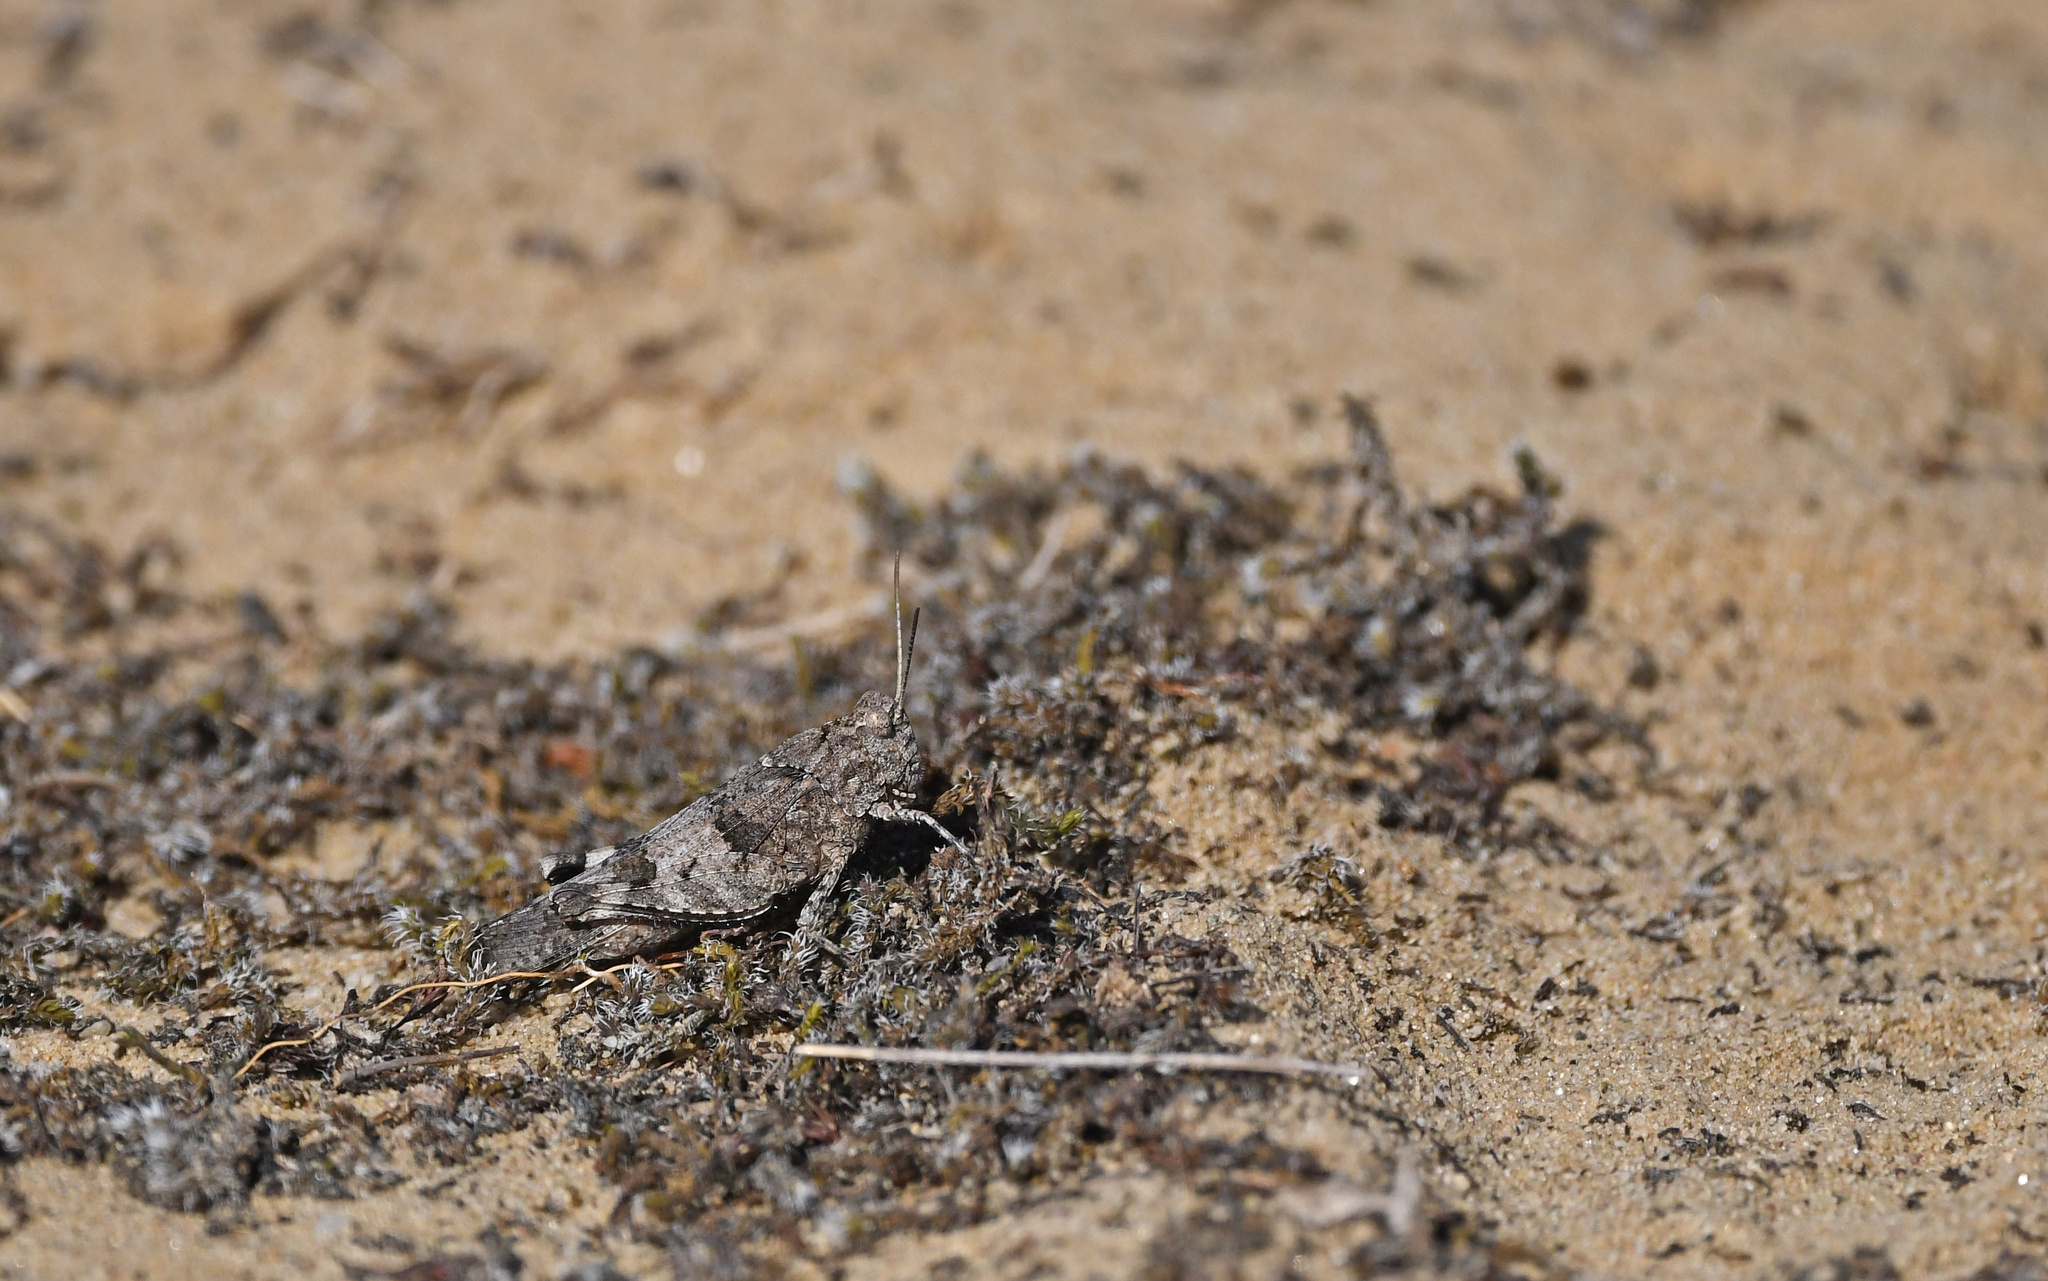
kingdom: Animalia
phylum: Arthropoda
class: Insecta
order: Orthoptera
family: Acrididae
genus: Oedipoda
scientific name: Oedipoda caerulescens
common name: Blue-winged grasshopper
